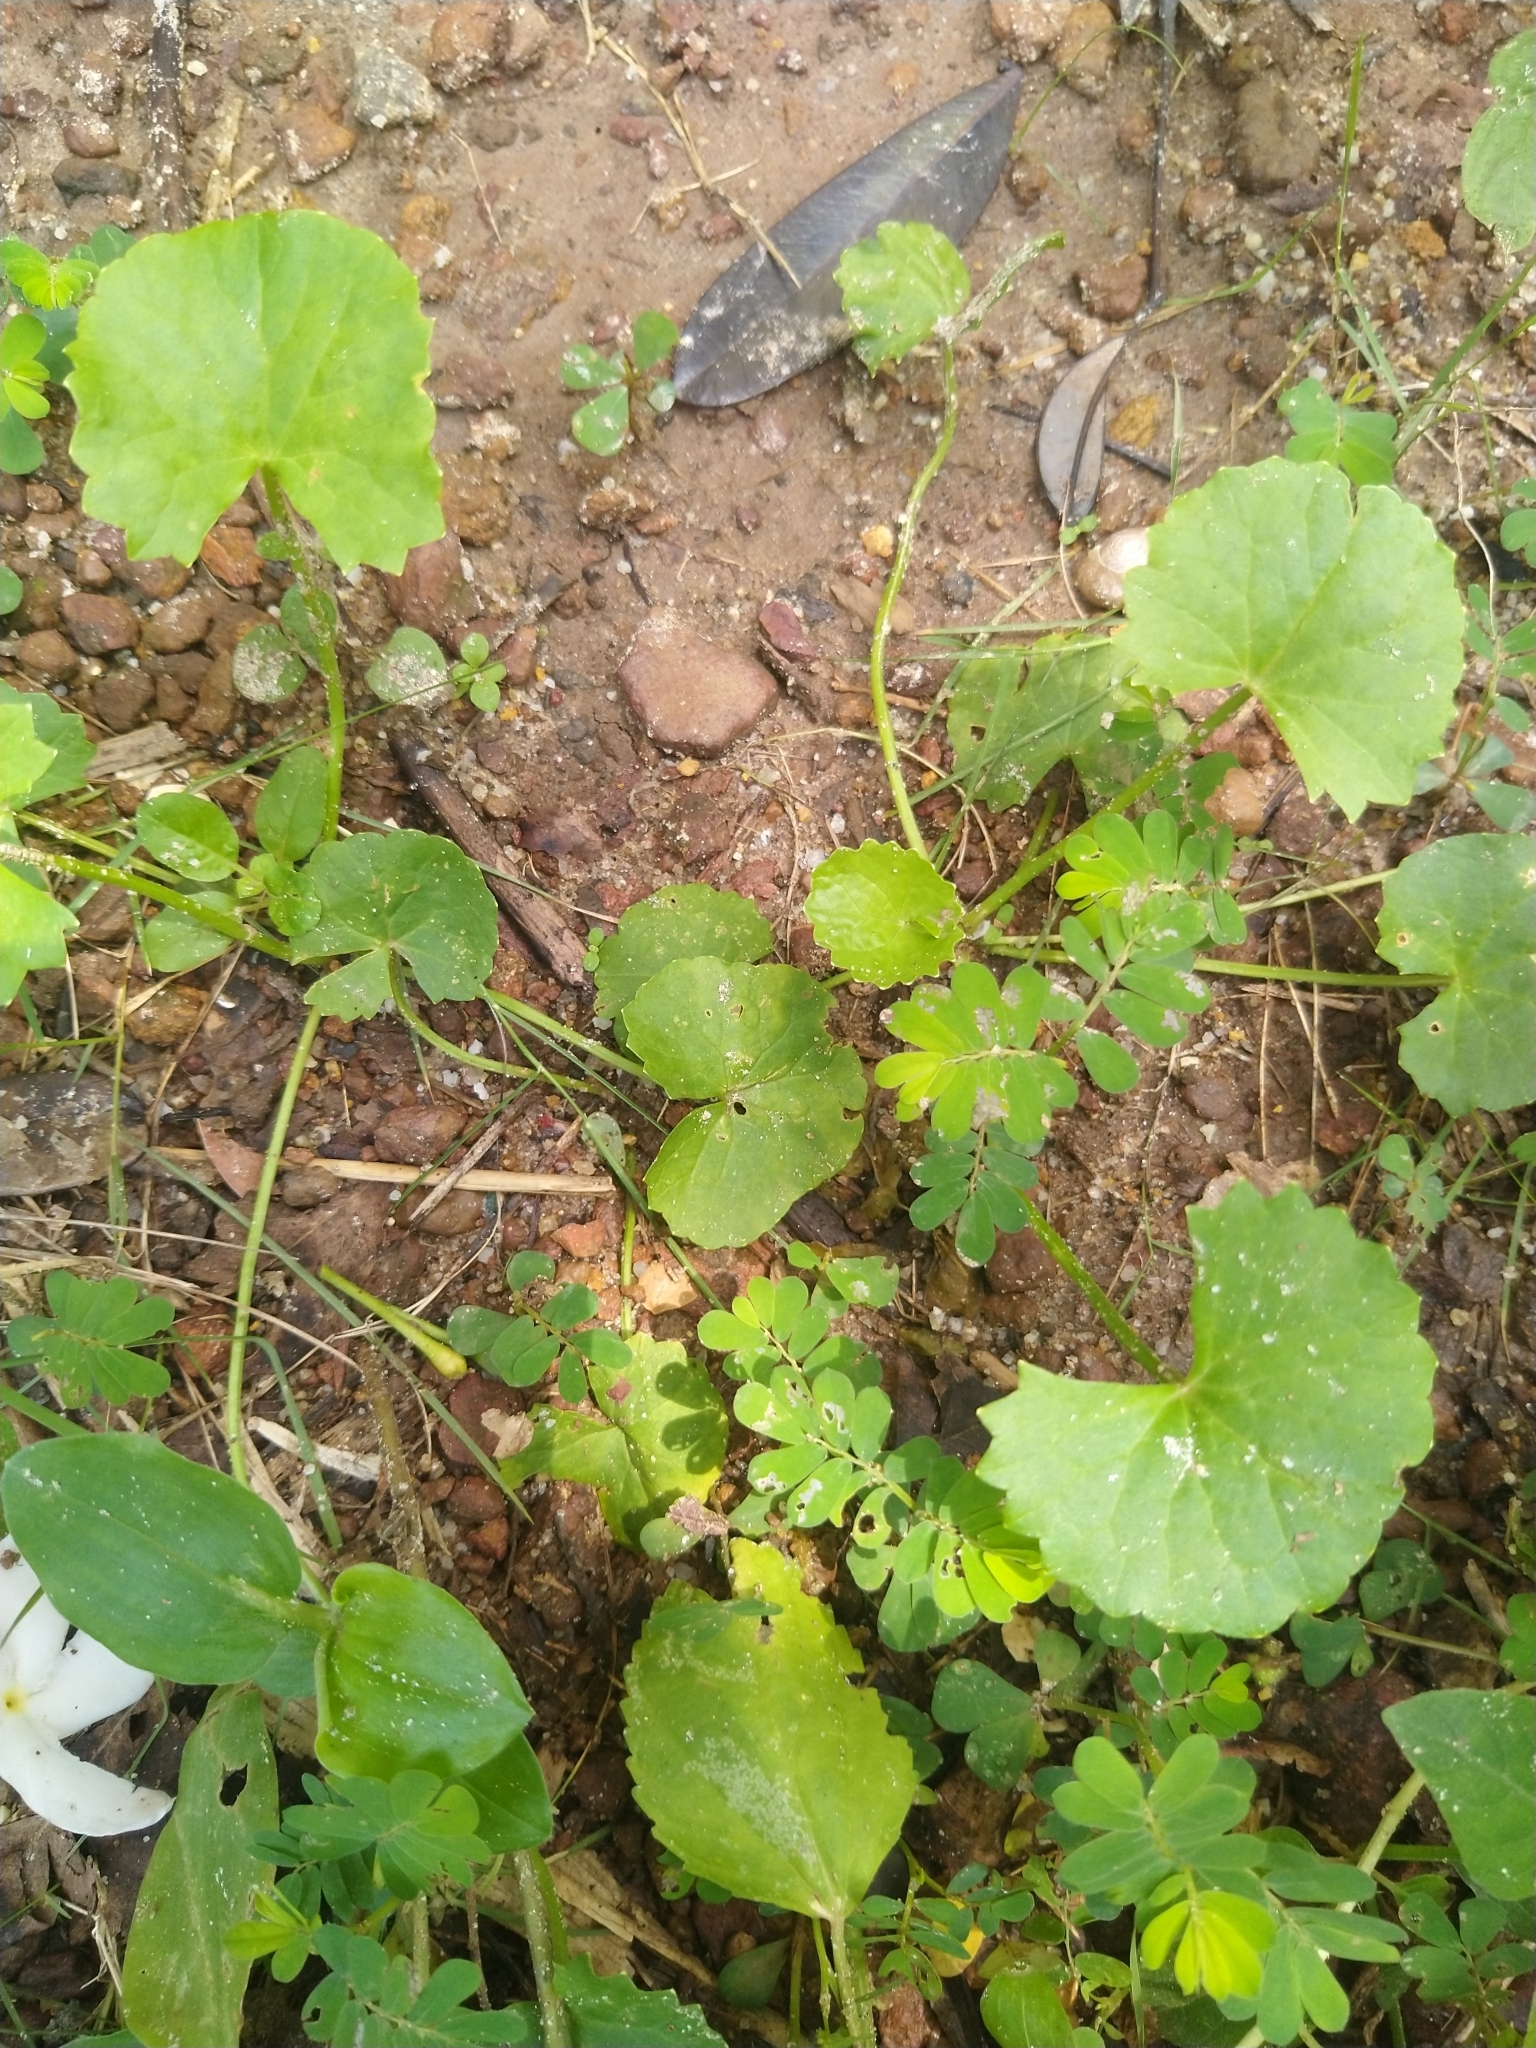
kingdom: Plantae
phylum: Tracheophyta
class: Magnoliopsida
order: Apiales
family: Apiaceae
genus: Centella
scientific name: Centella asiatica
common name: Spadeleaf
